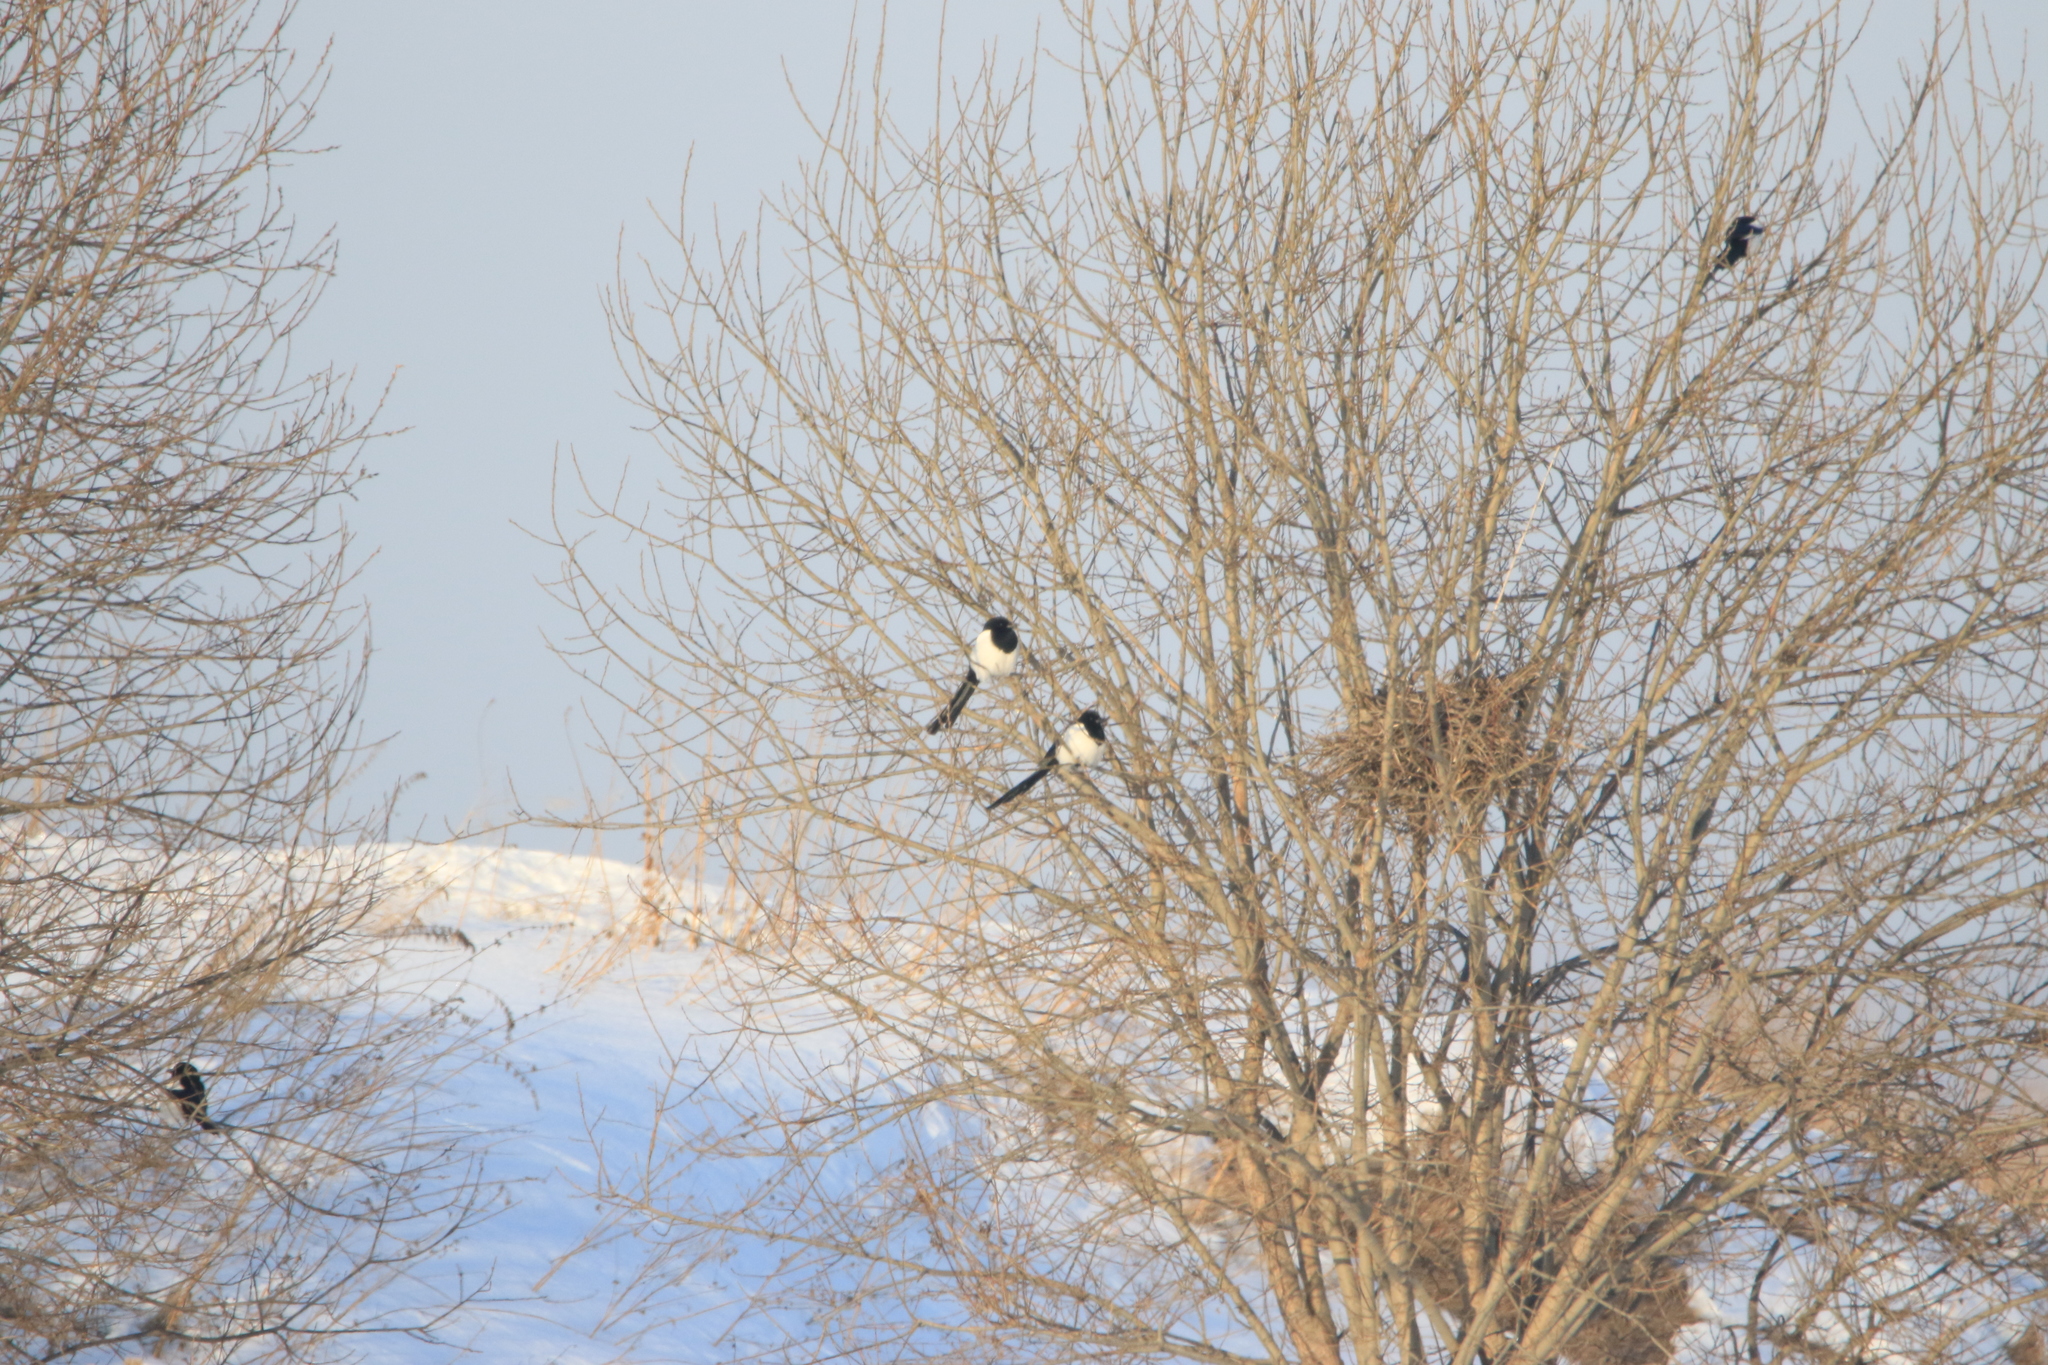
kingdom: Animalia
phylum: Chordata
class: Aves
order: Passeriformes
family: Corvidae
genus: Pica
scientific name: Pica pica
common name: Eurasian magpie
